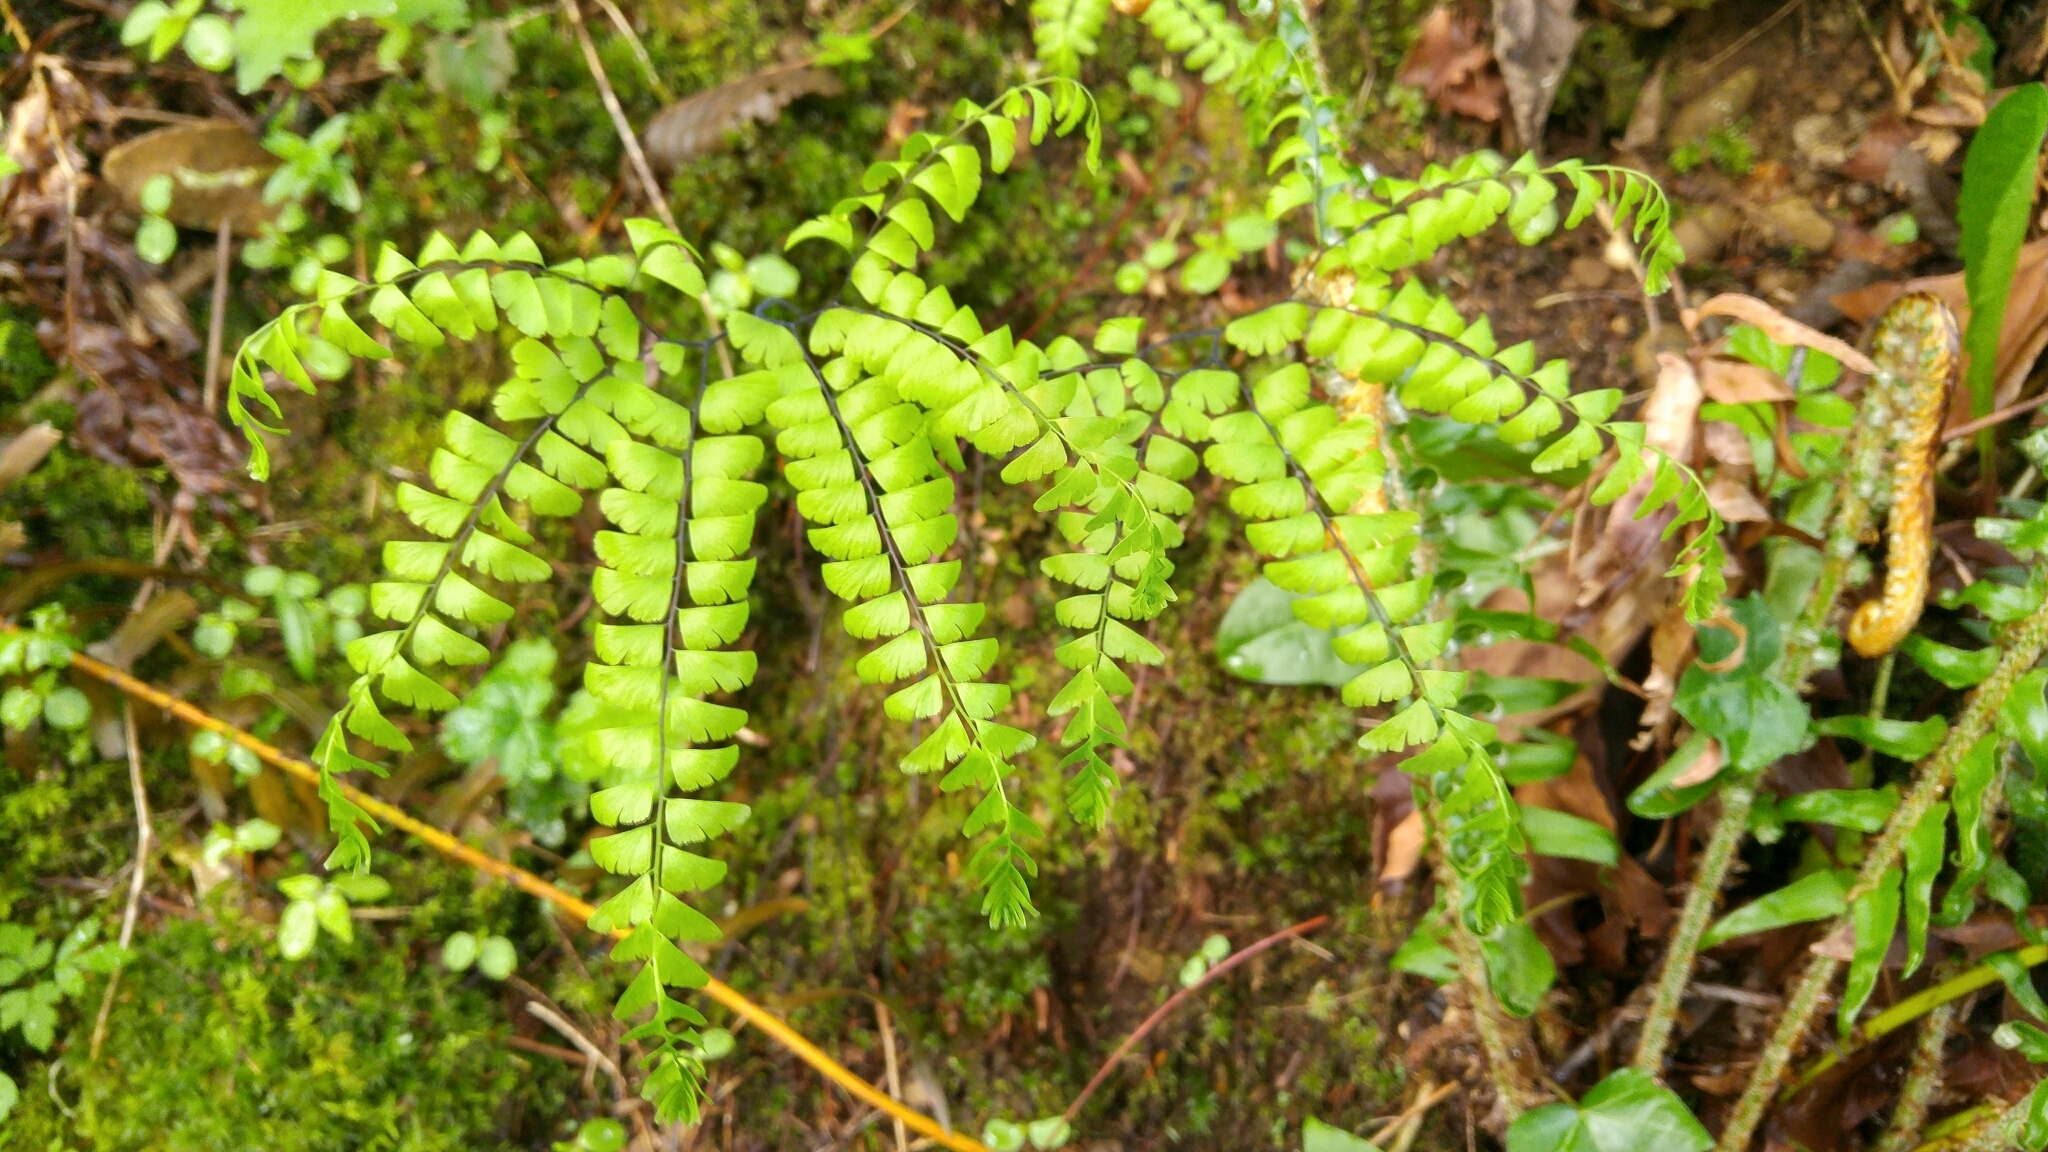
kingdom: Plantae
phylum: Tracheophyta
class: Polypodiopsida
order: Polypodiales
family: Pteridaceae
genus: Adiantum
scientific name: Adiantum aleuticum
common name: Aleutian maidenhair fern
